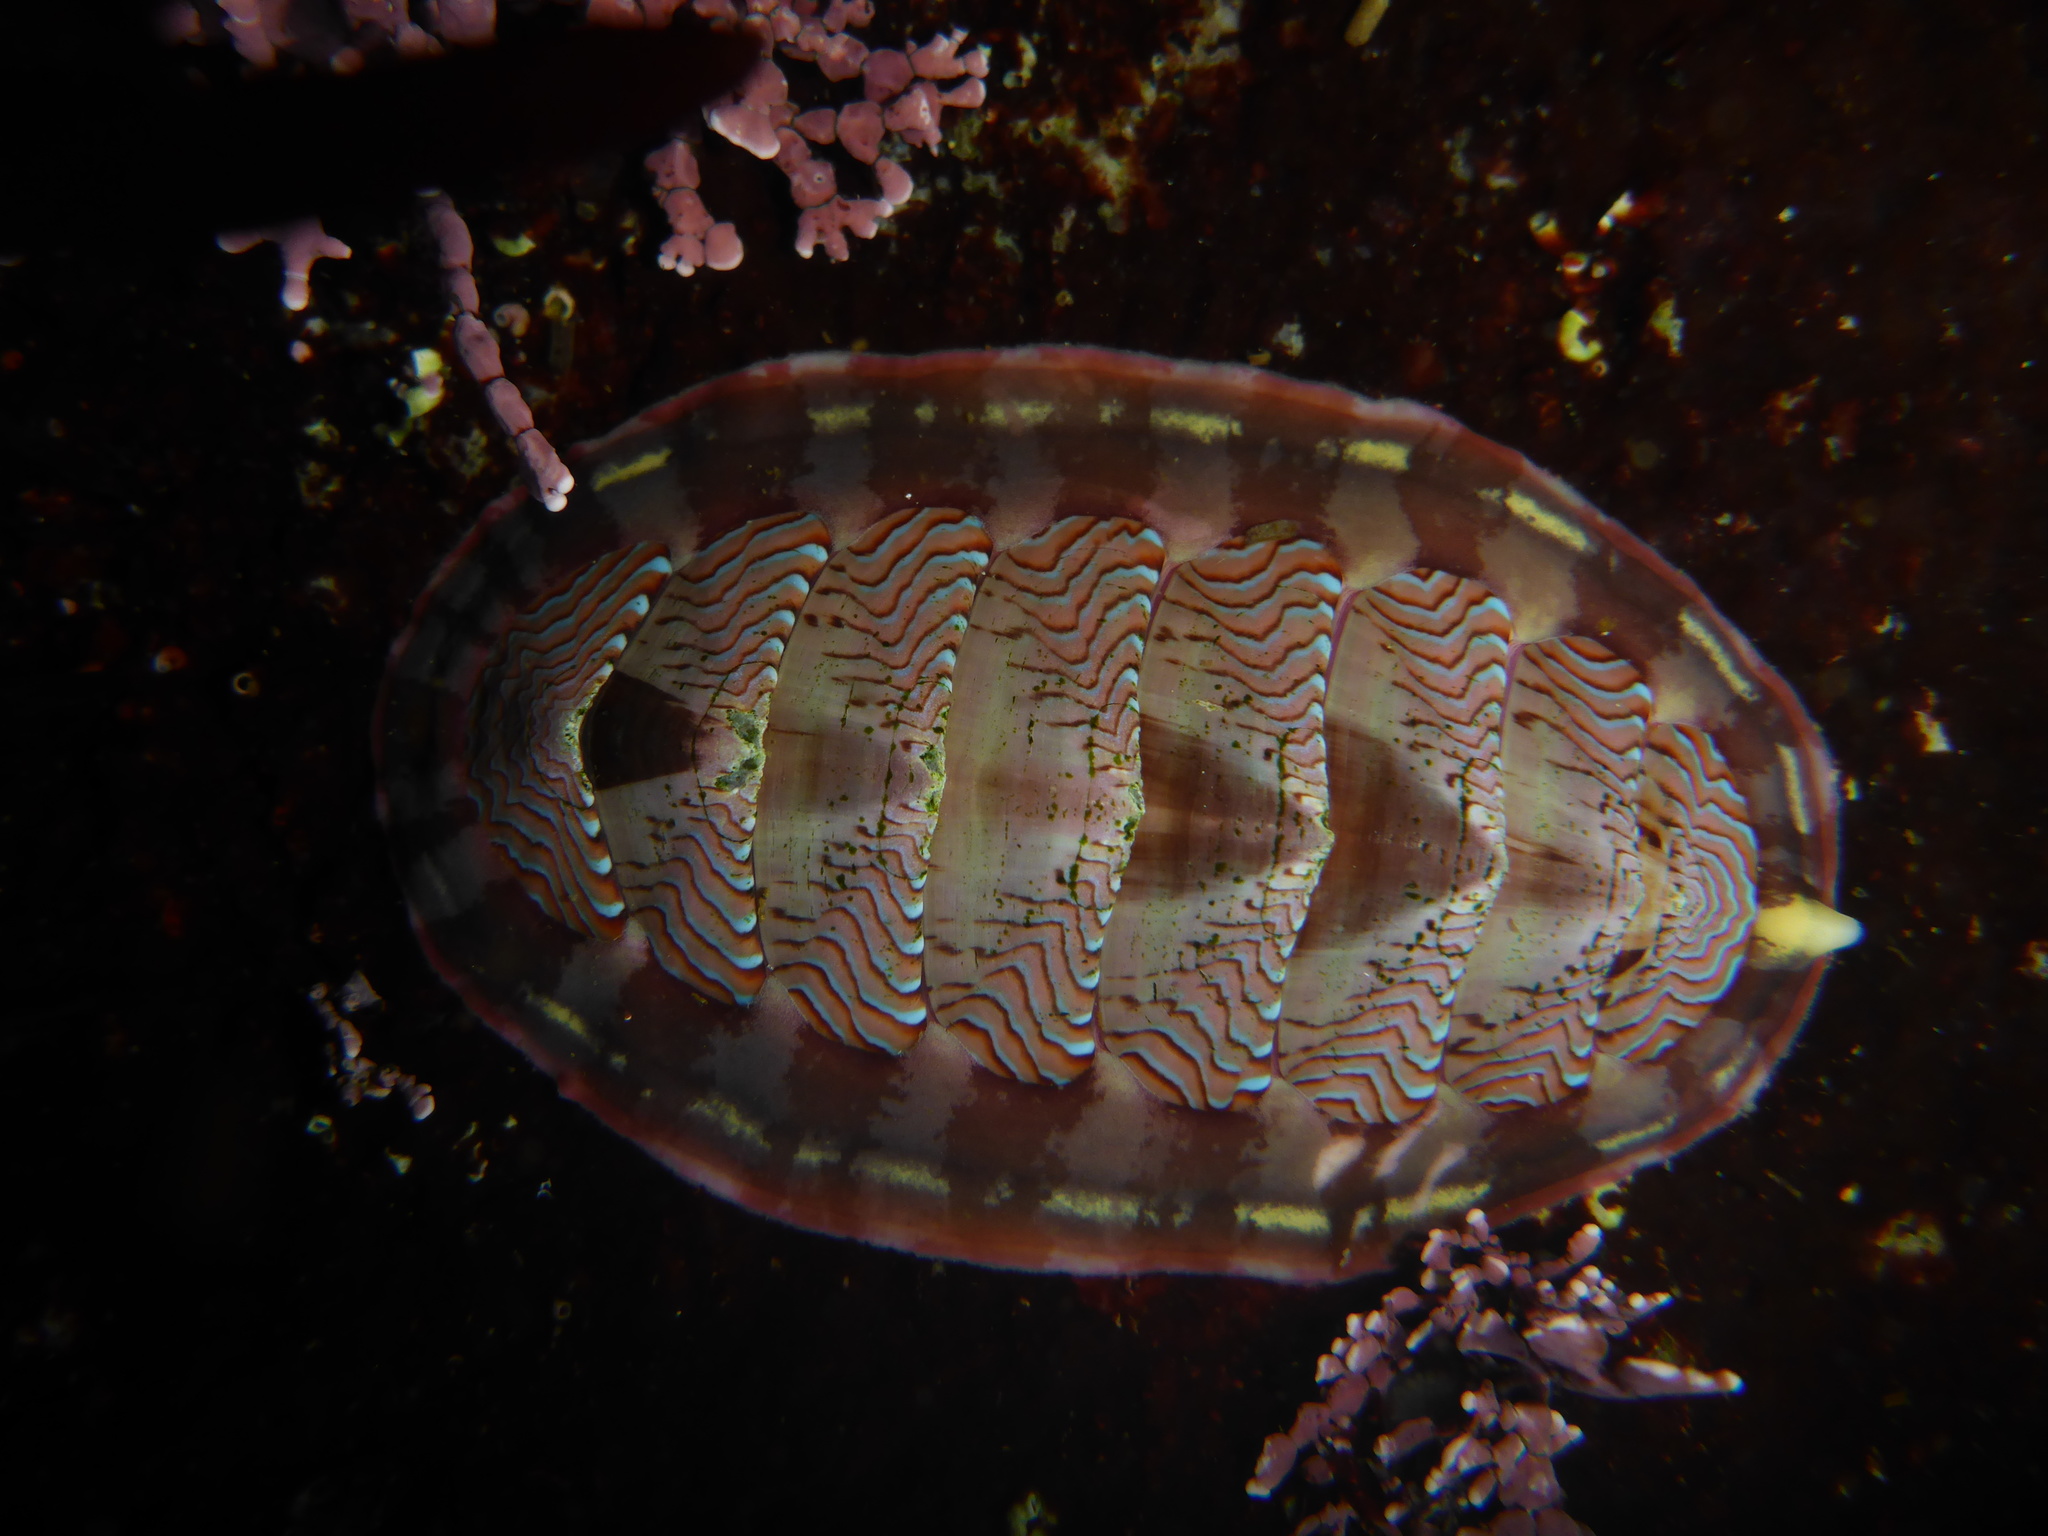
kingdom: Animalia
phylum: Mollusca
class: Polyplacophora
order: Chitonida
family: Tonicellidae
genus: Tonicella
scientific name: Tonicella lineata
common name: Lined chiton
